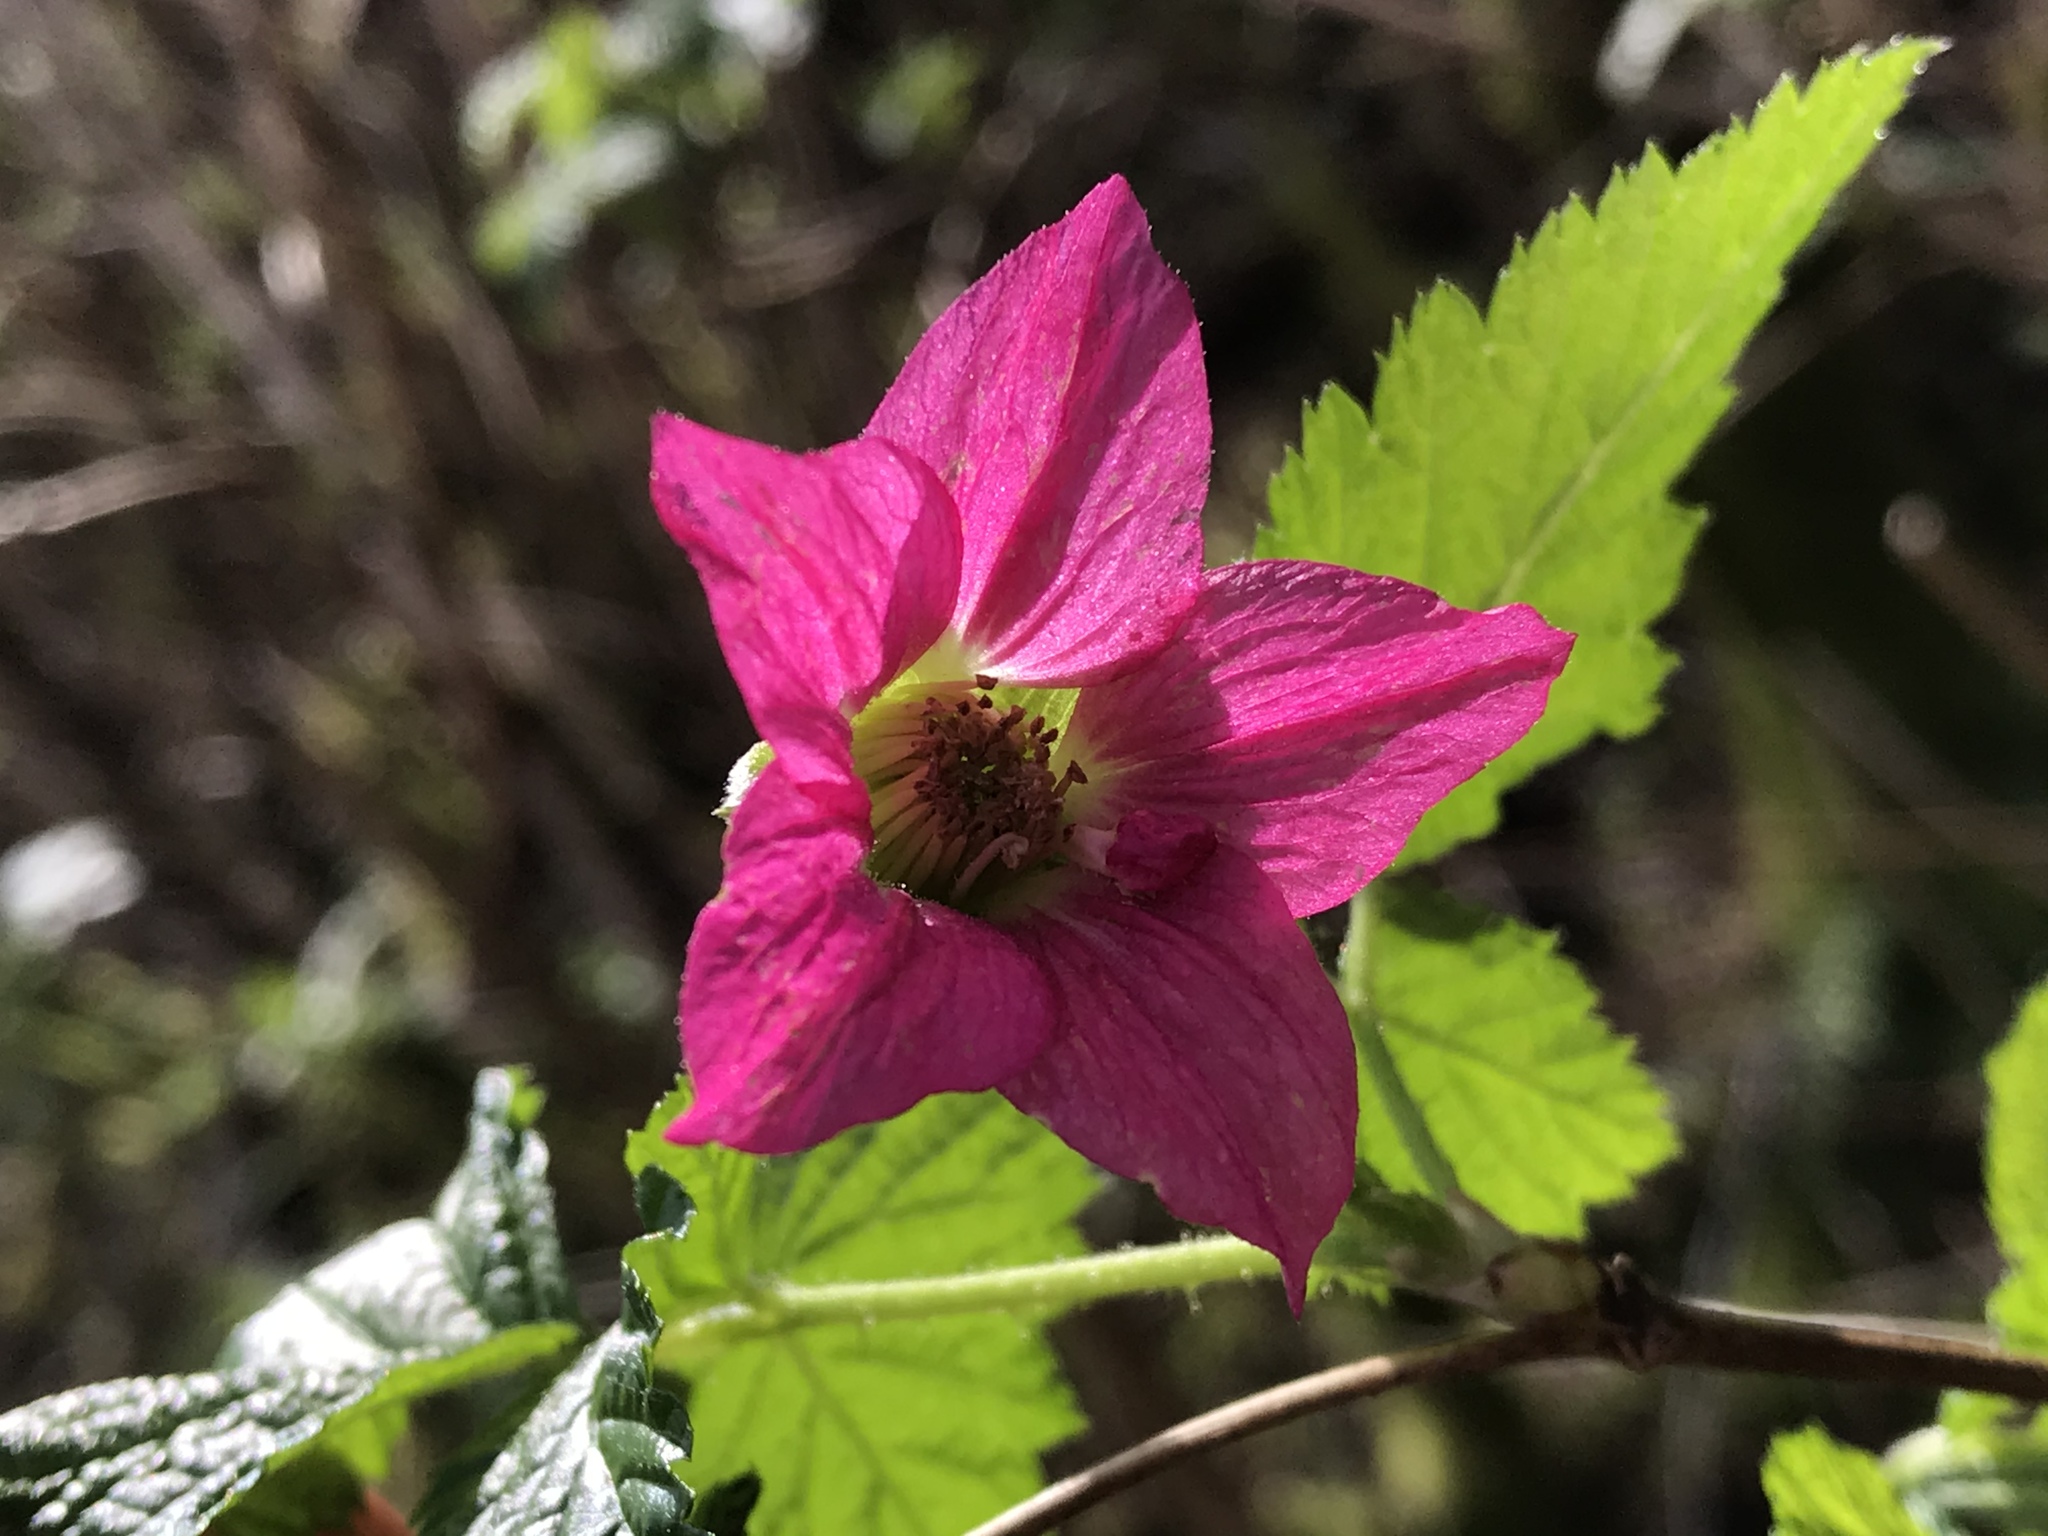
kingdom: Plantae
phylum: Tracheophyta
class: Magnoliopsida
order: Rosales
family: Rosaceae
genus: Rubus
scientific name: Rubus spectabilis
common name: Salmonberry
